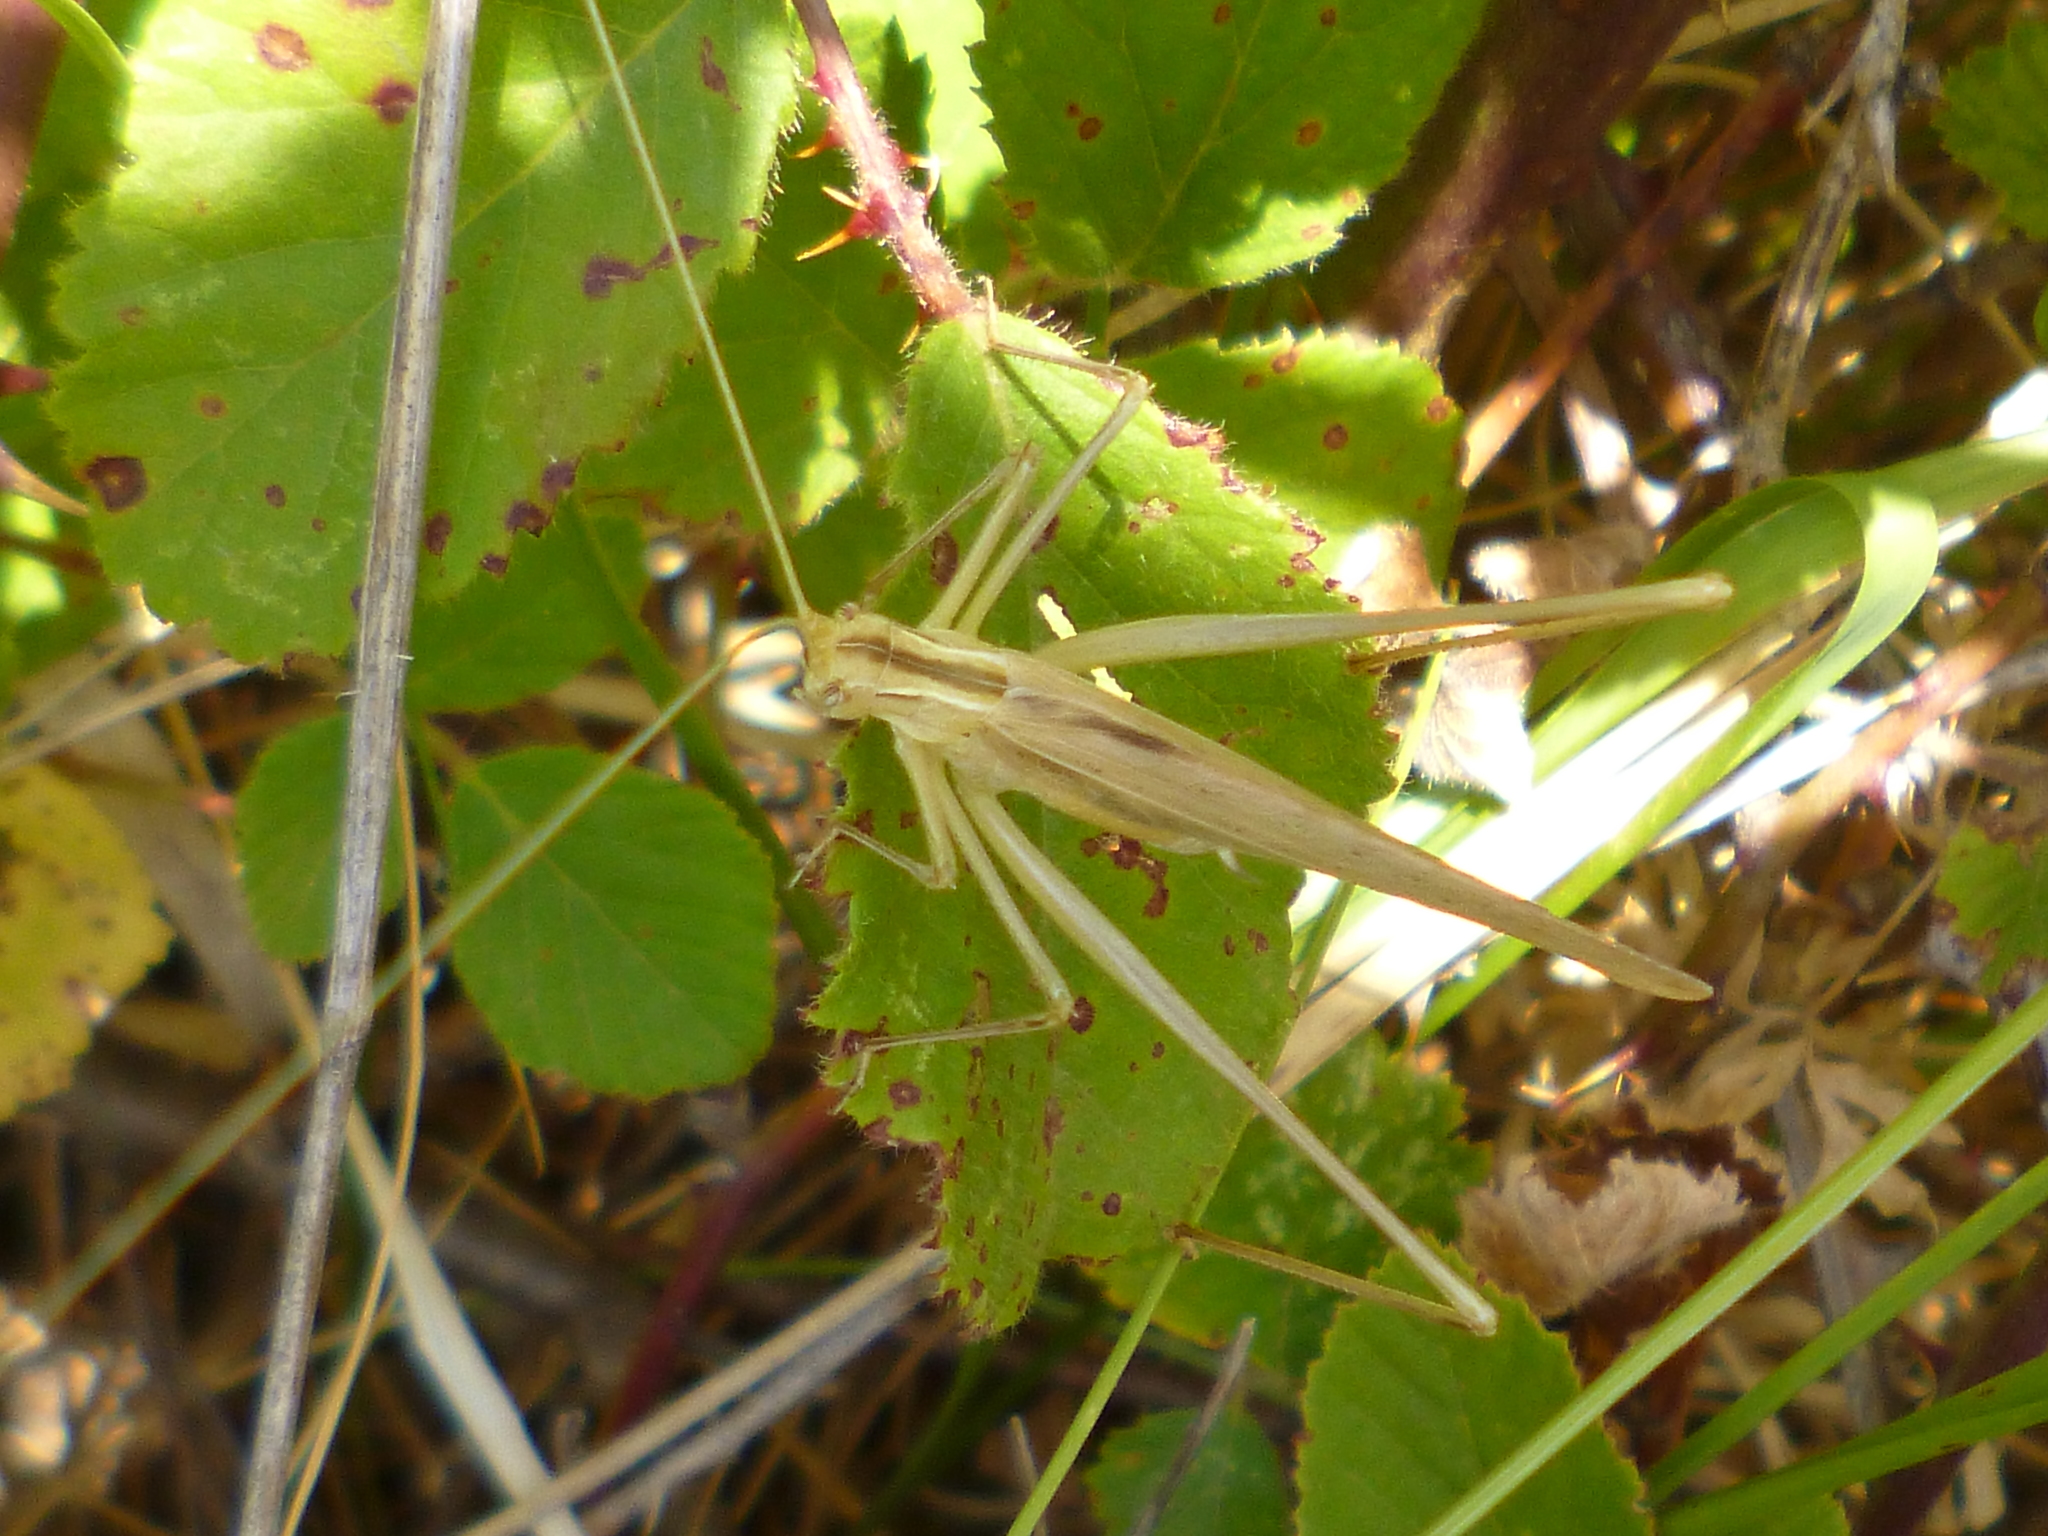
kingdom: Animalia
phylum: Arthropoda
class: Insecta
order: Orthoptera
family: Tettigoniidae
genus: Tylopsis
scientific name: Tylopsis lilifolia
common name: Lily bush-cricket
